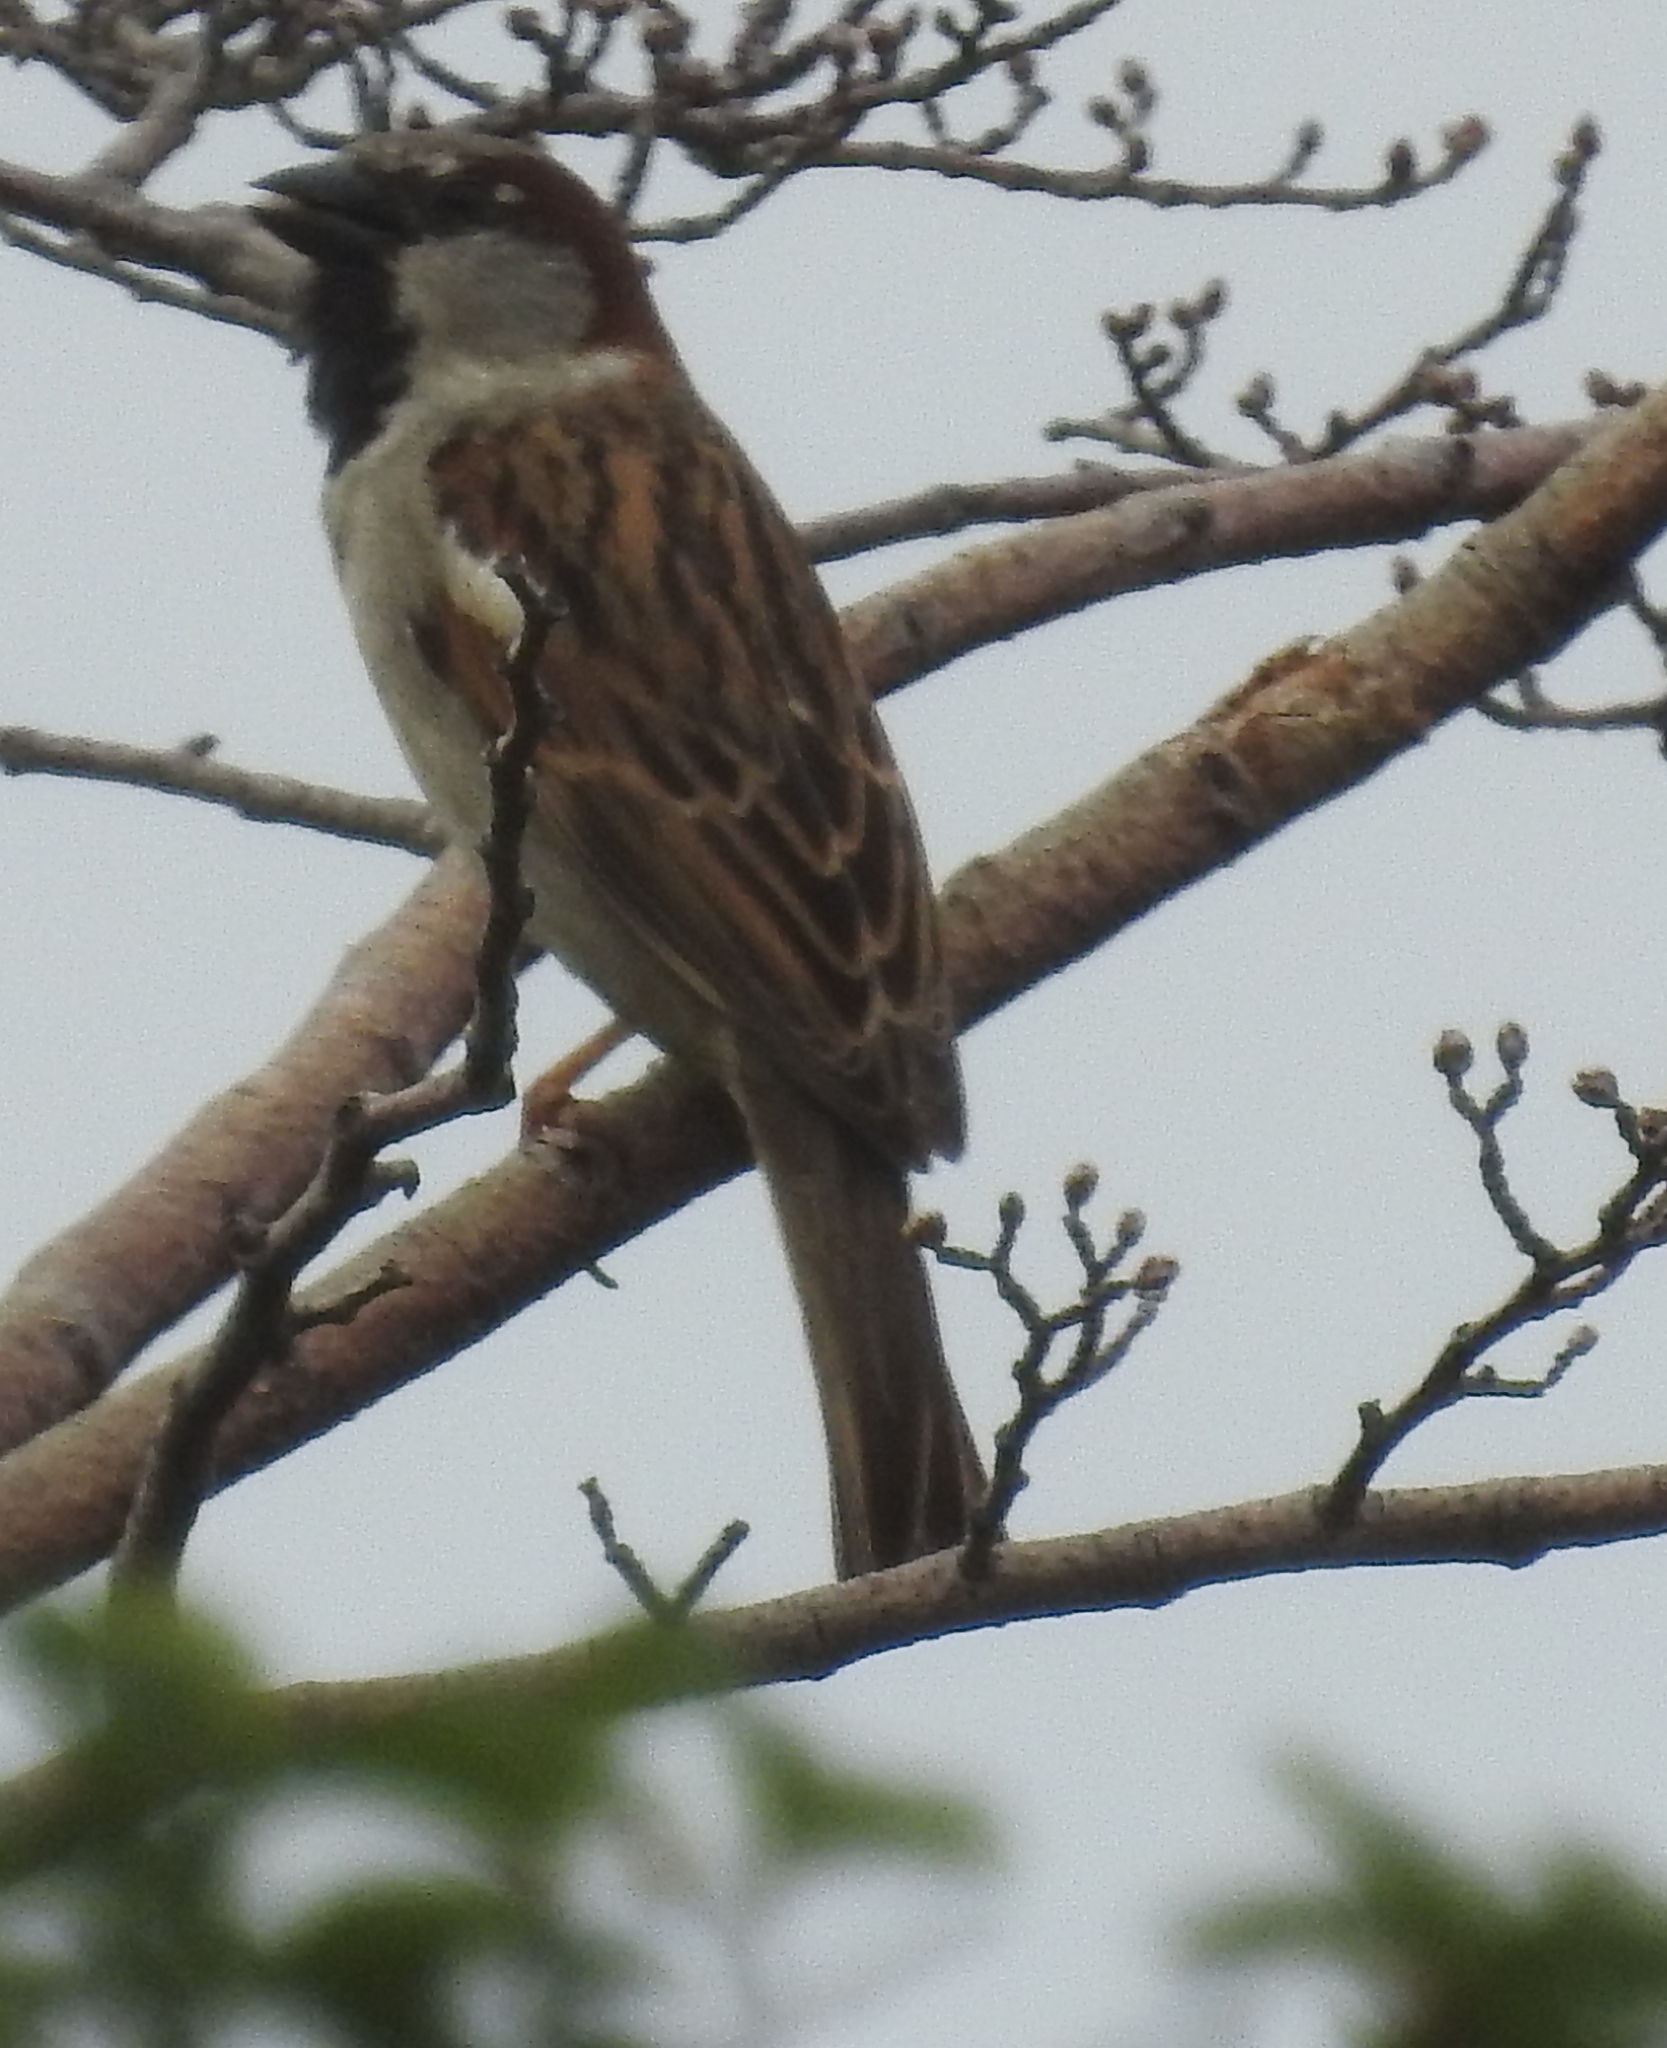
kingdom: Animalia
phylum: Chordata
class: Aves
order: Passeriformes
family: Passeridae
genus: Passer
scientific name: Passer domesticus
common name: House sparrow
